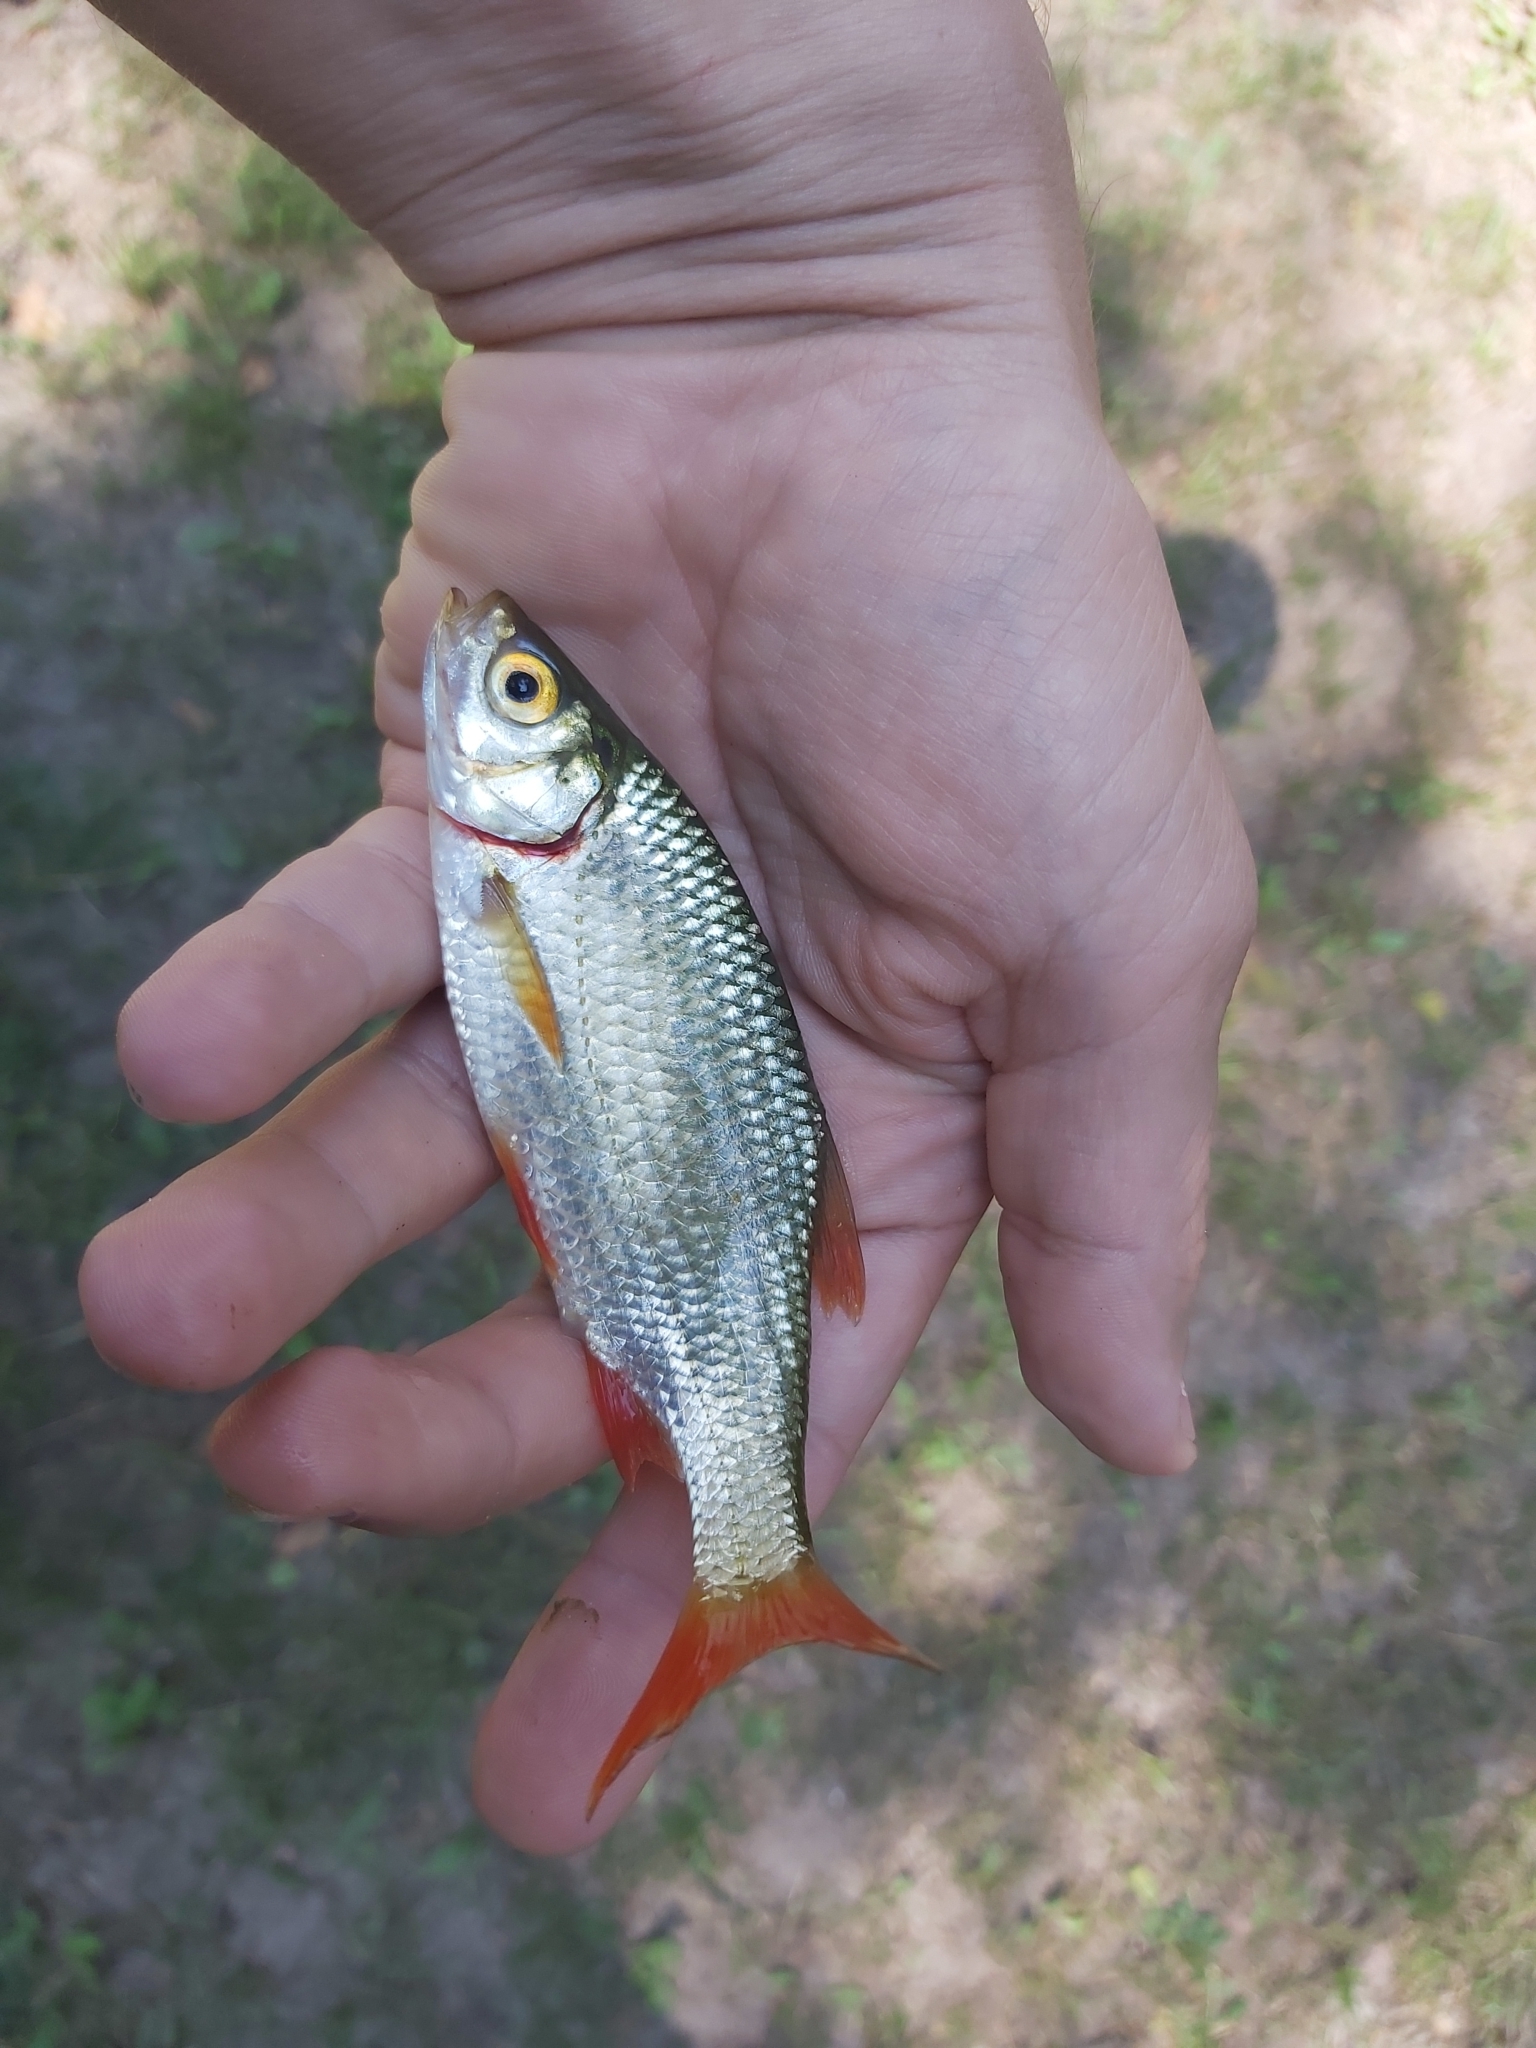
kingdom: Animalia
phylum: Chordata
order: Cypriniformes
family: Cyprinidae
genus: Scardinius
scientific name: Scardinius erythrophthalmus
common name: Rudd
